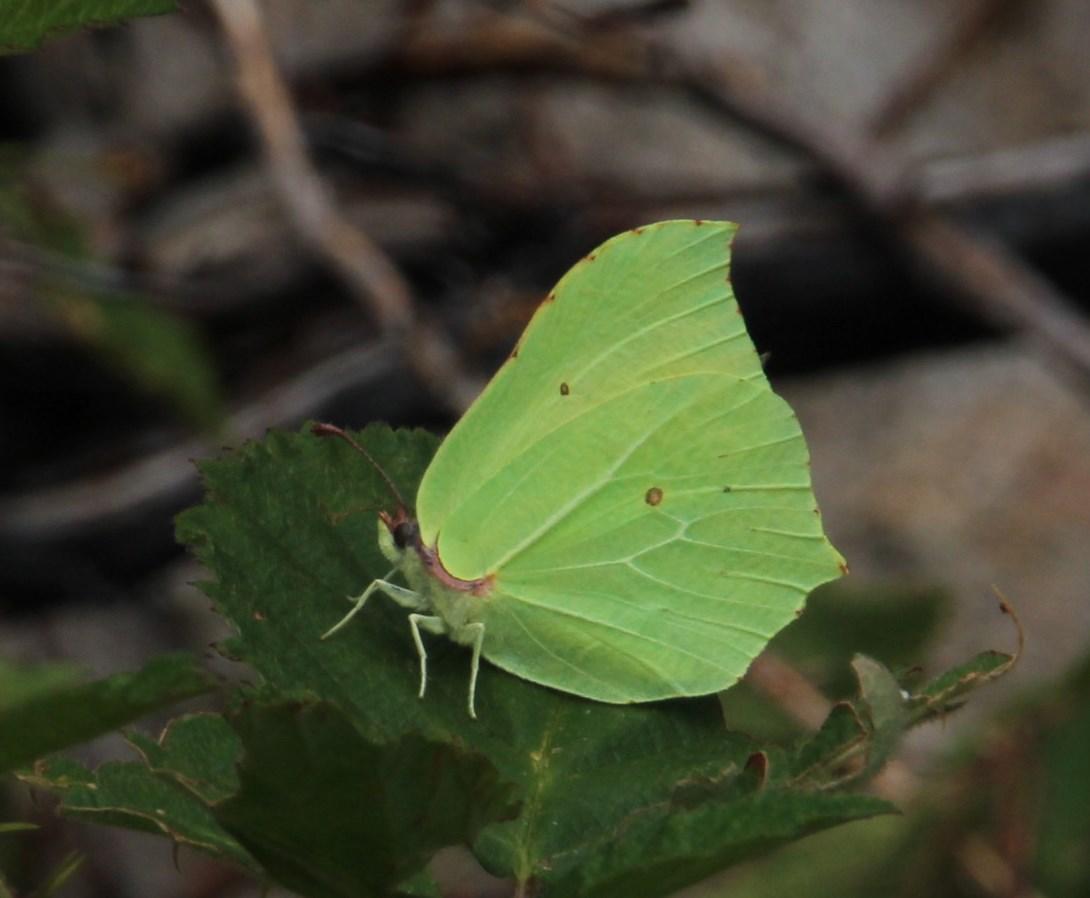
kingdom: Animalia
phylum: Arthropoda
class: Insecta
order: Lepidoptera
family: Pieridae
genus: Gonepteryx
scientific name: Gonepteryx rhamni
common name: Brimstone
